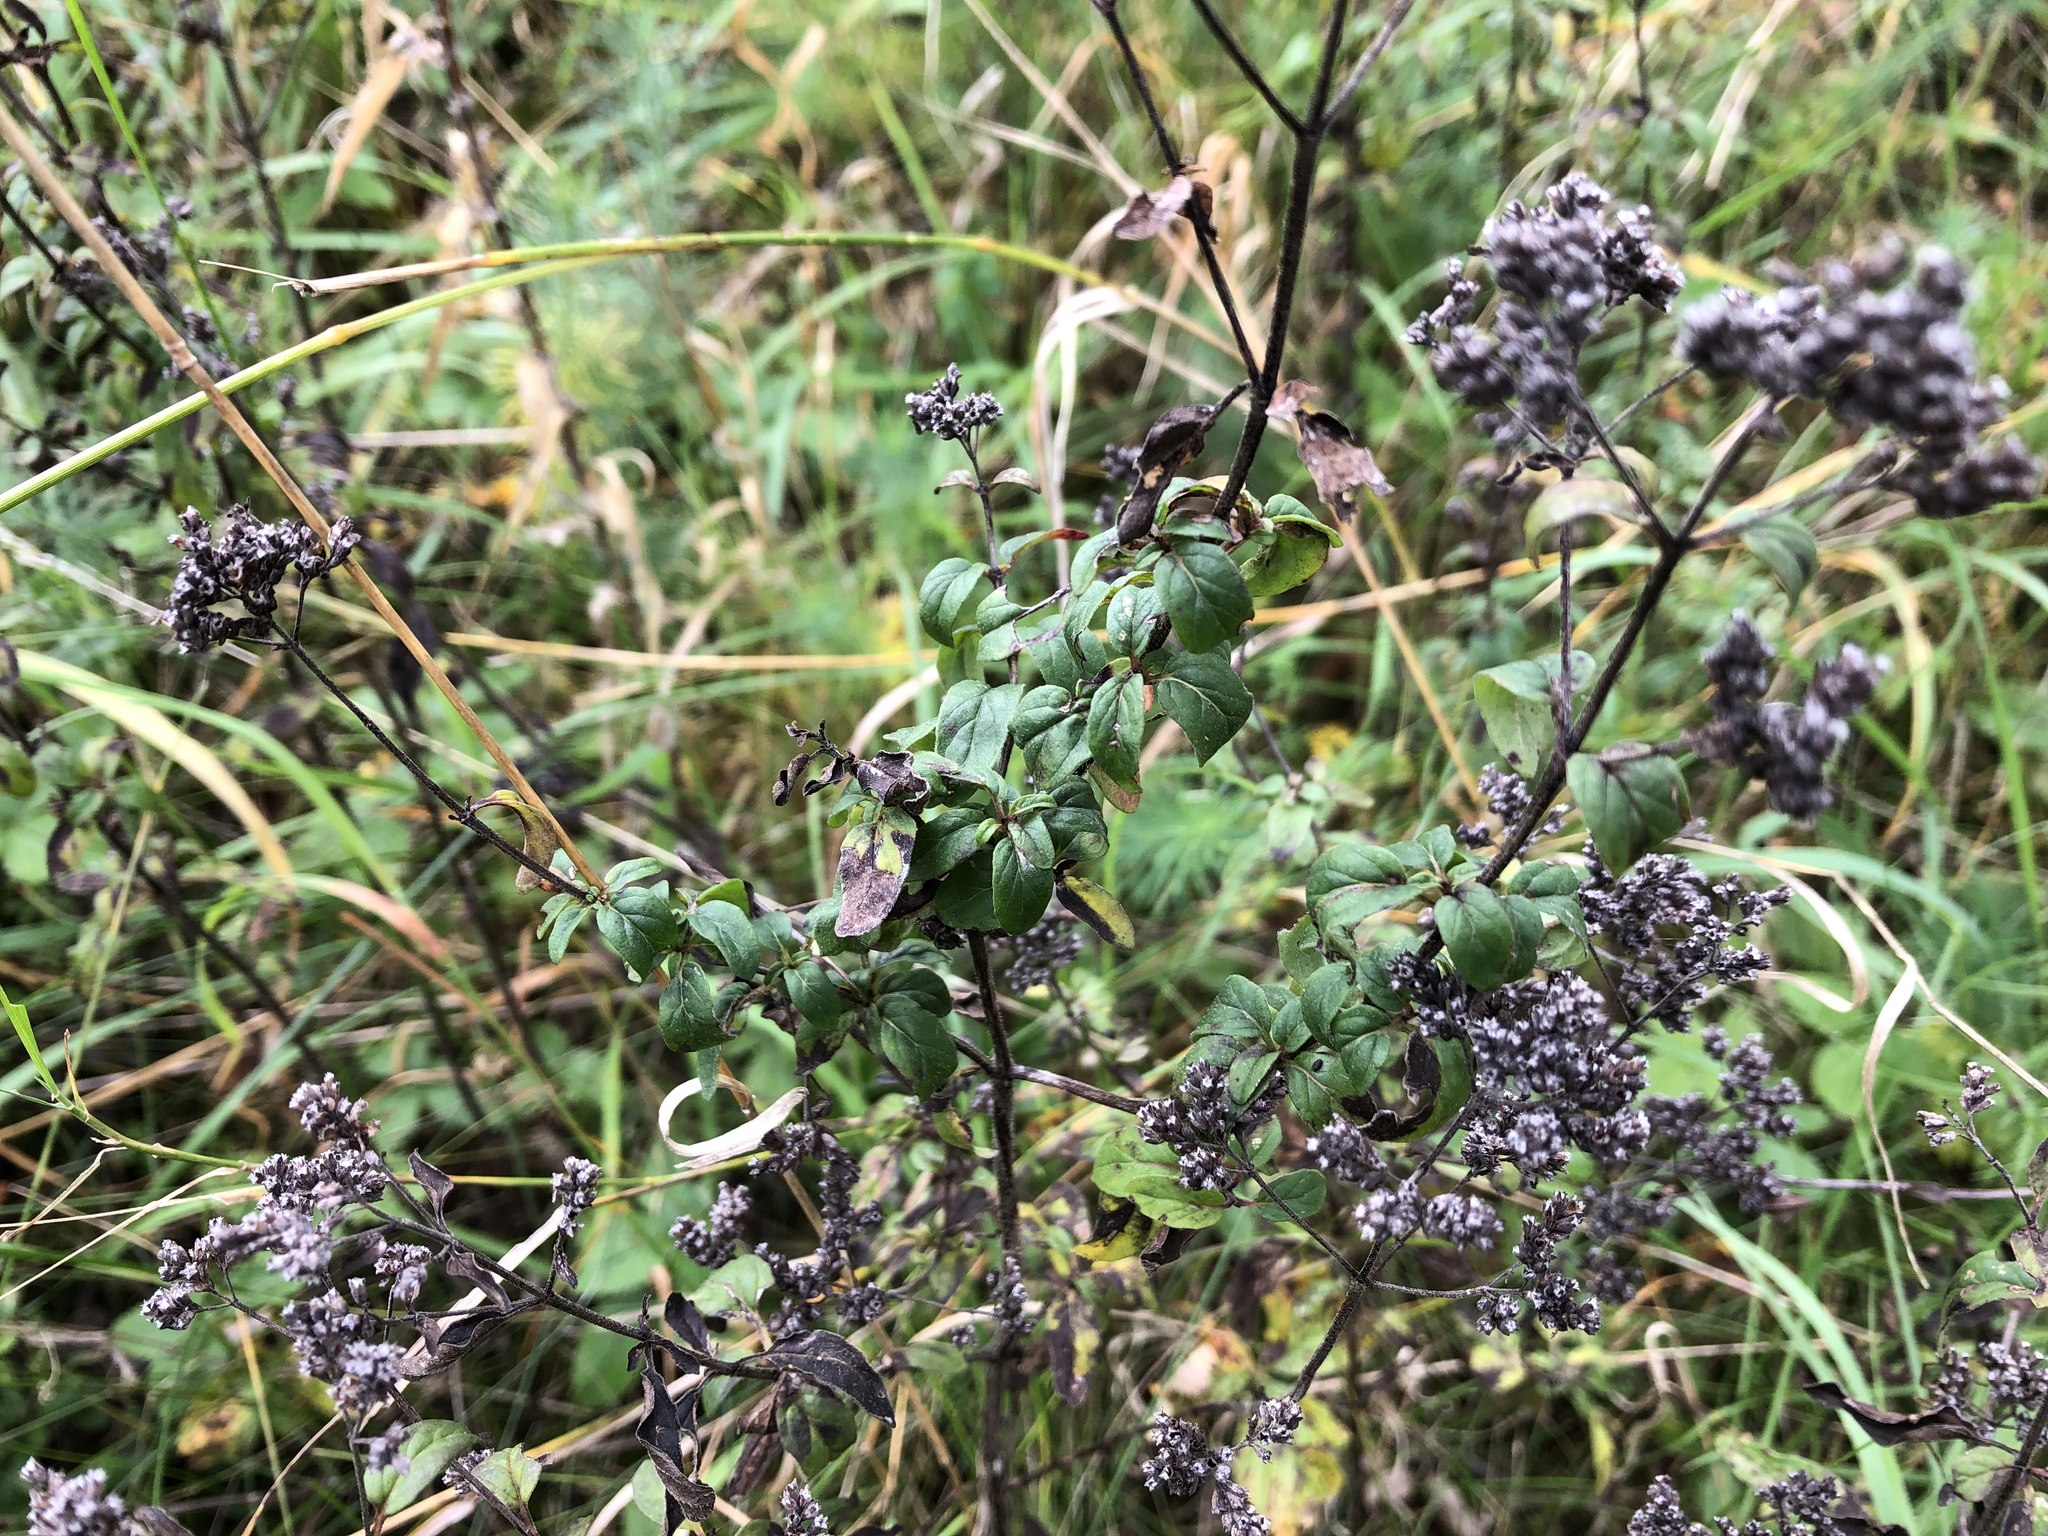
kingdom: Plantae
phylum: Tracheophyta
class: Magnoliopsida
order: Lamiales
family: Lamiaceae
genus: Origanum
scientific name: Origanum vulgare
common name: Wild marjoram
